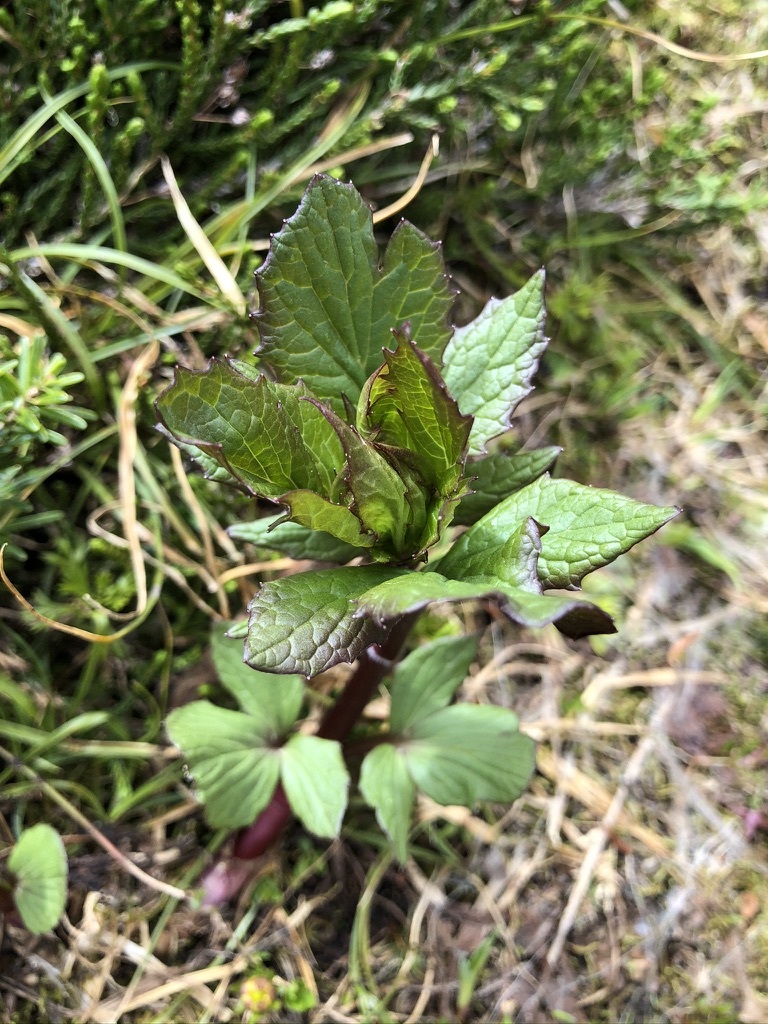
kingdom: Plantae
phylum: Tracheophyta
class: Magnoliopsida
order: Dipsacales
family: Caprifoliaceae
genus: Valeriana
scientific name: Valeriana sitchensis
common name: Pacific valerian
